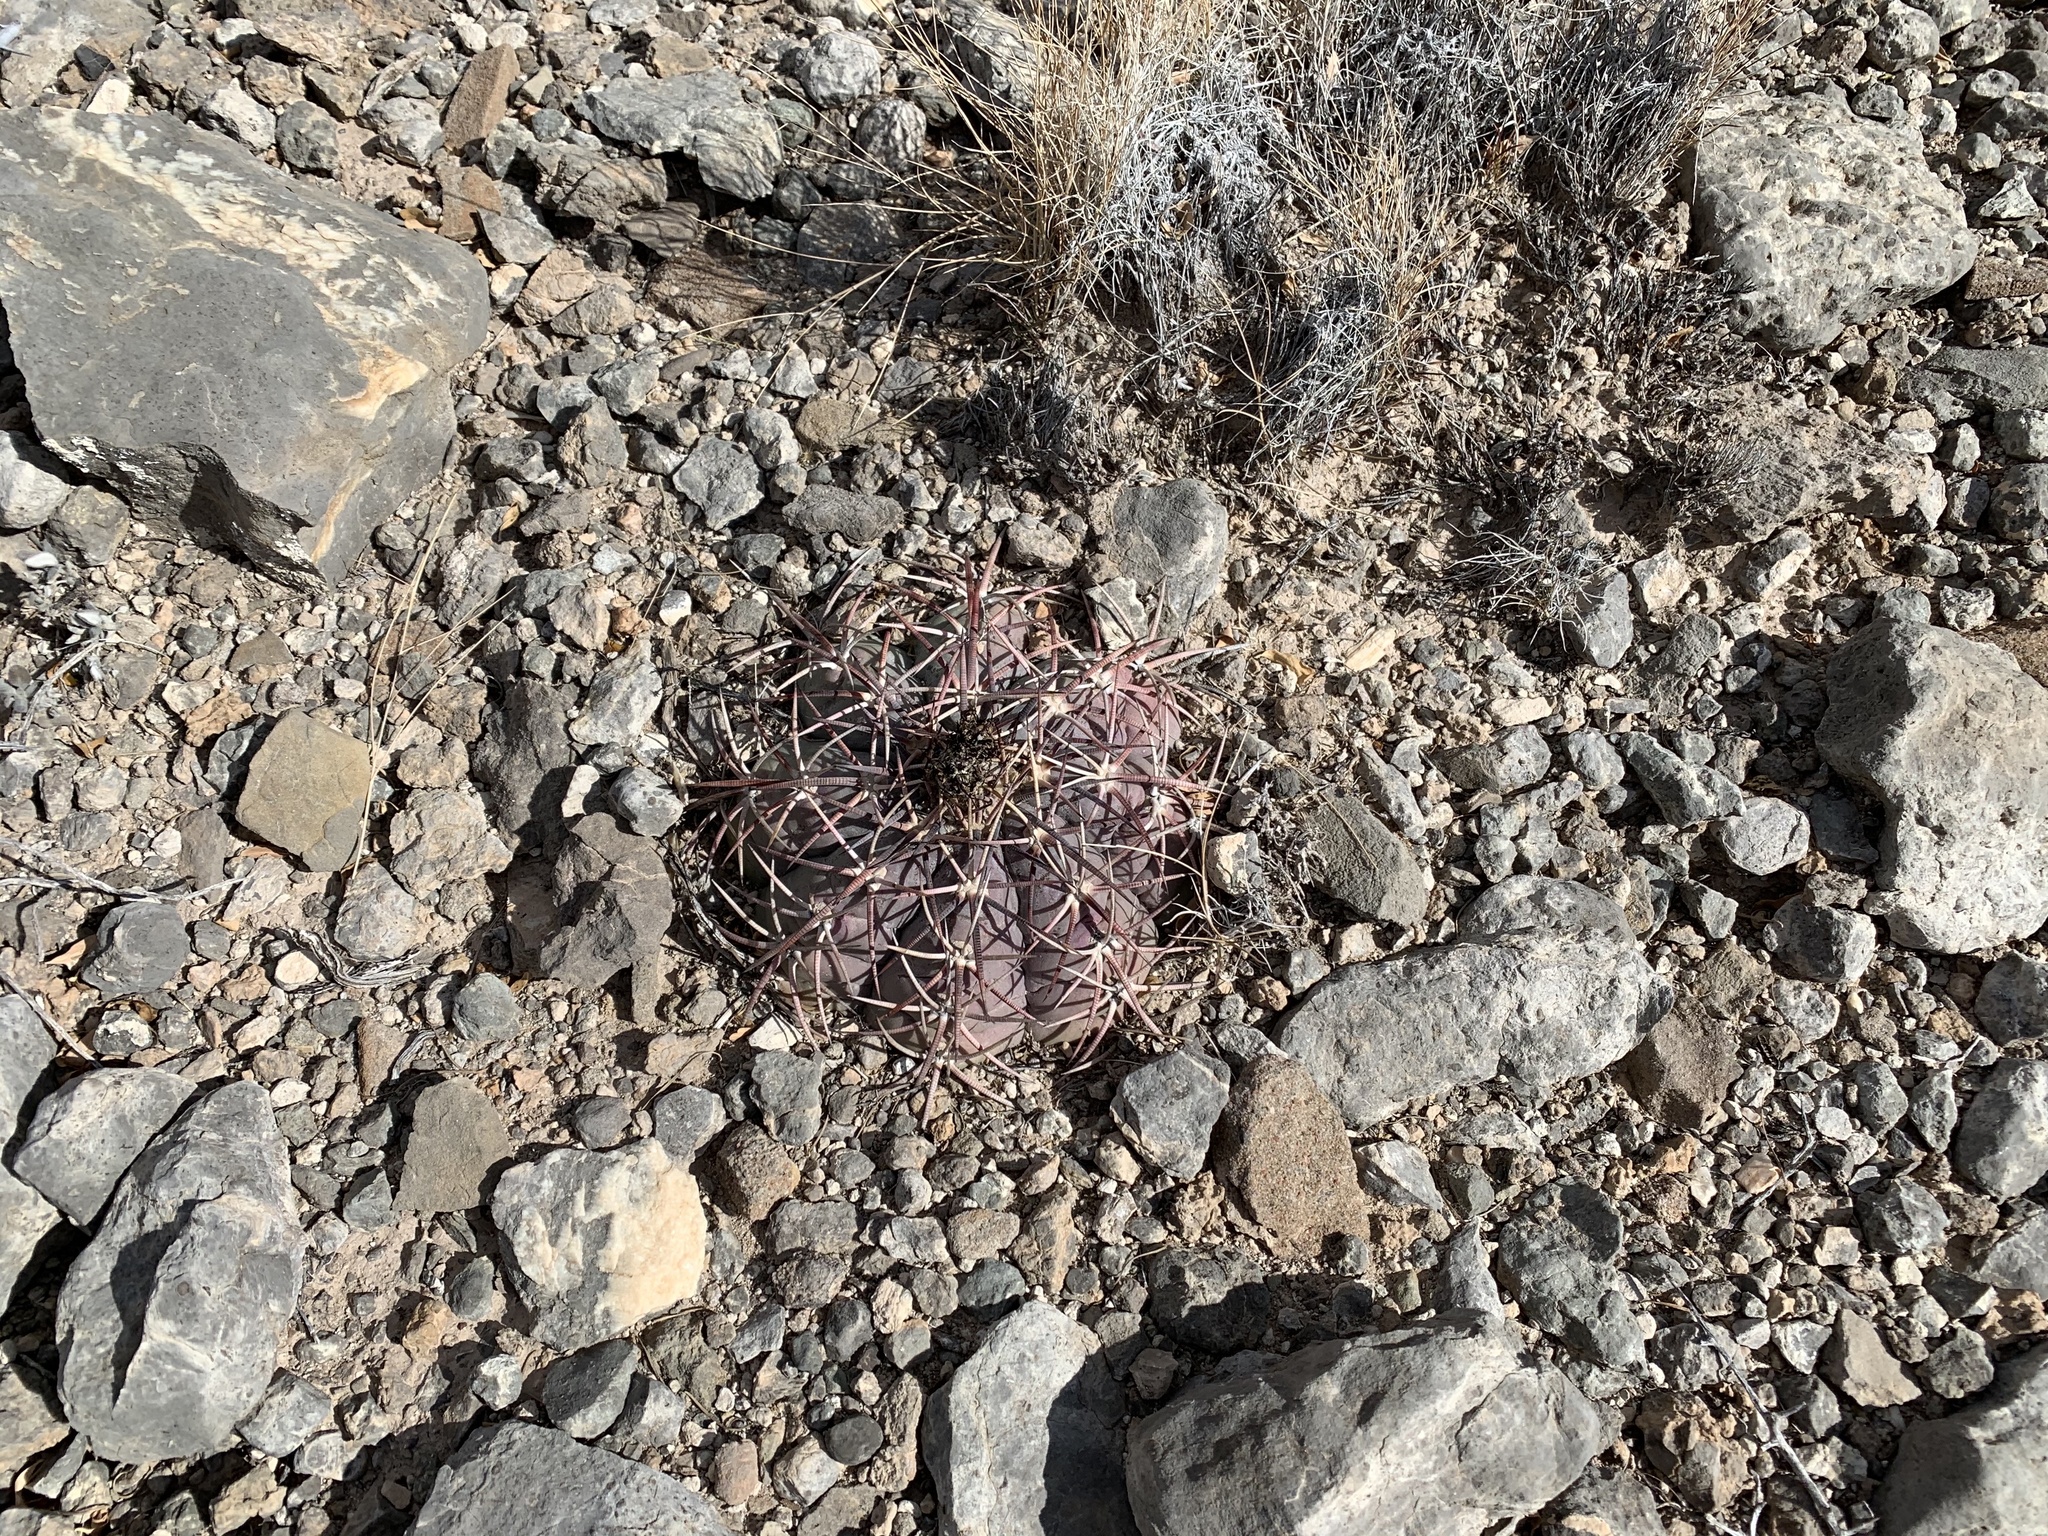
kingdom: Plantae
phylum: Tracheophyta
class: Magnoliopsida
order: Caryophyllales
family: Cactaceae
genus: Echinocactus
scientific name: Echinocactus horizonthalonius
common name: Devilshead
